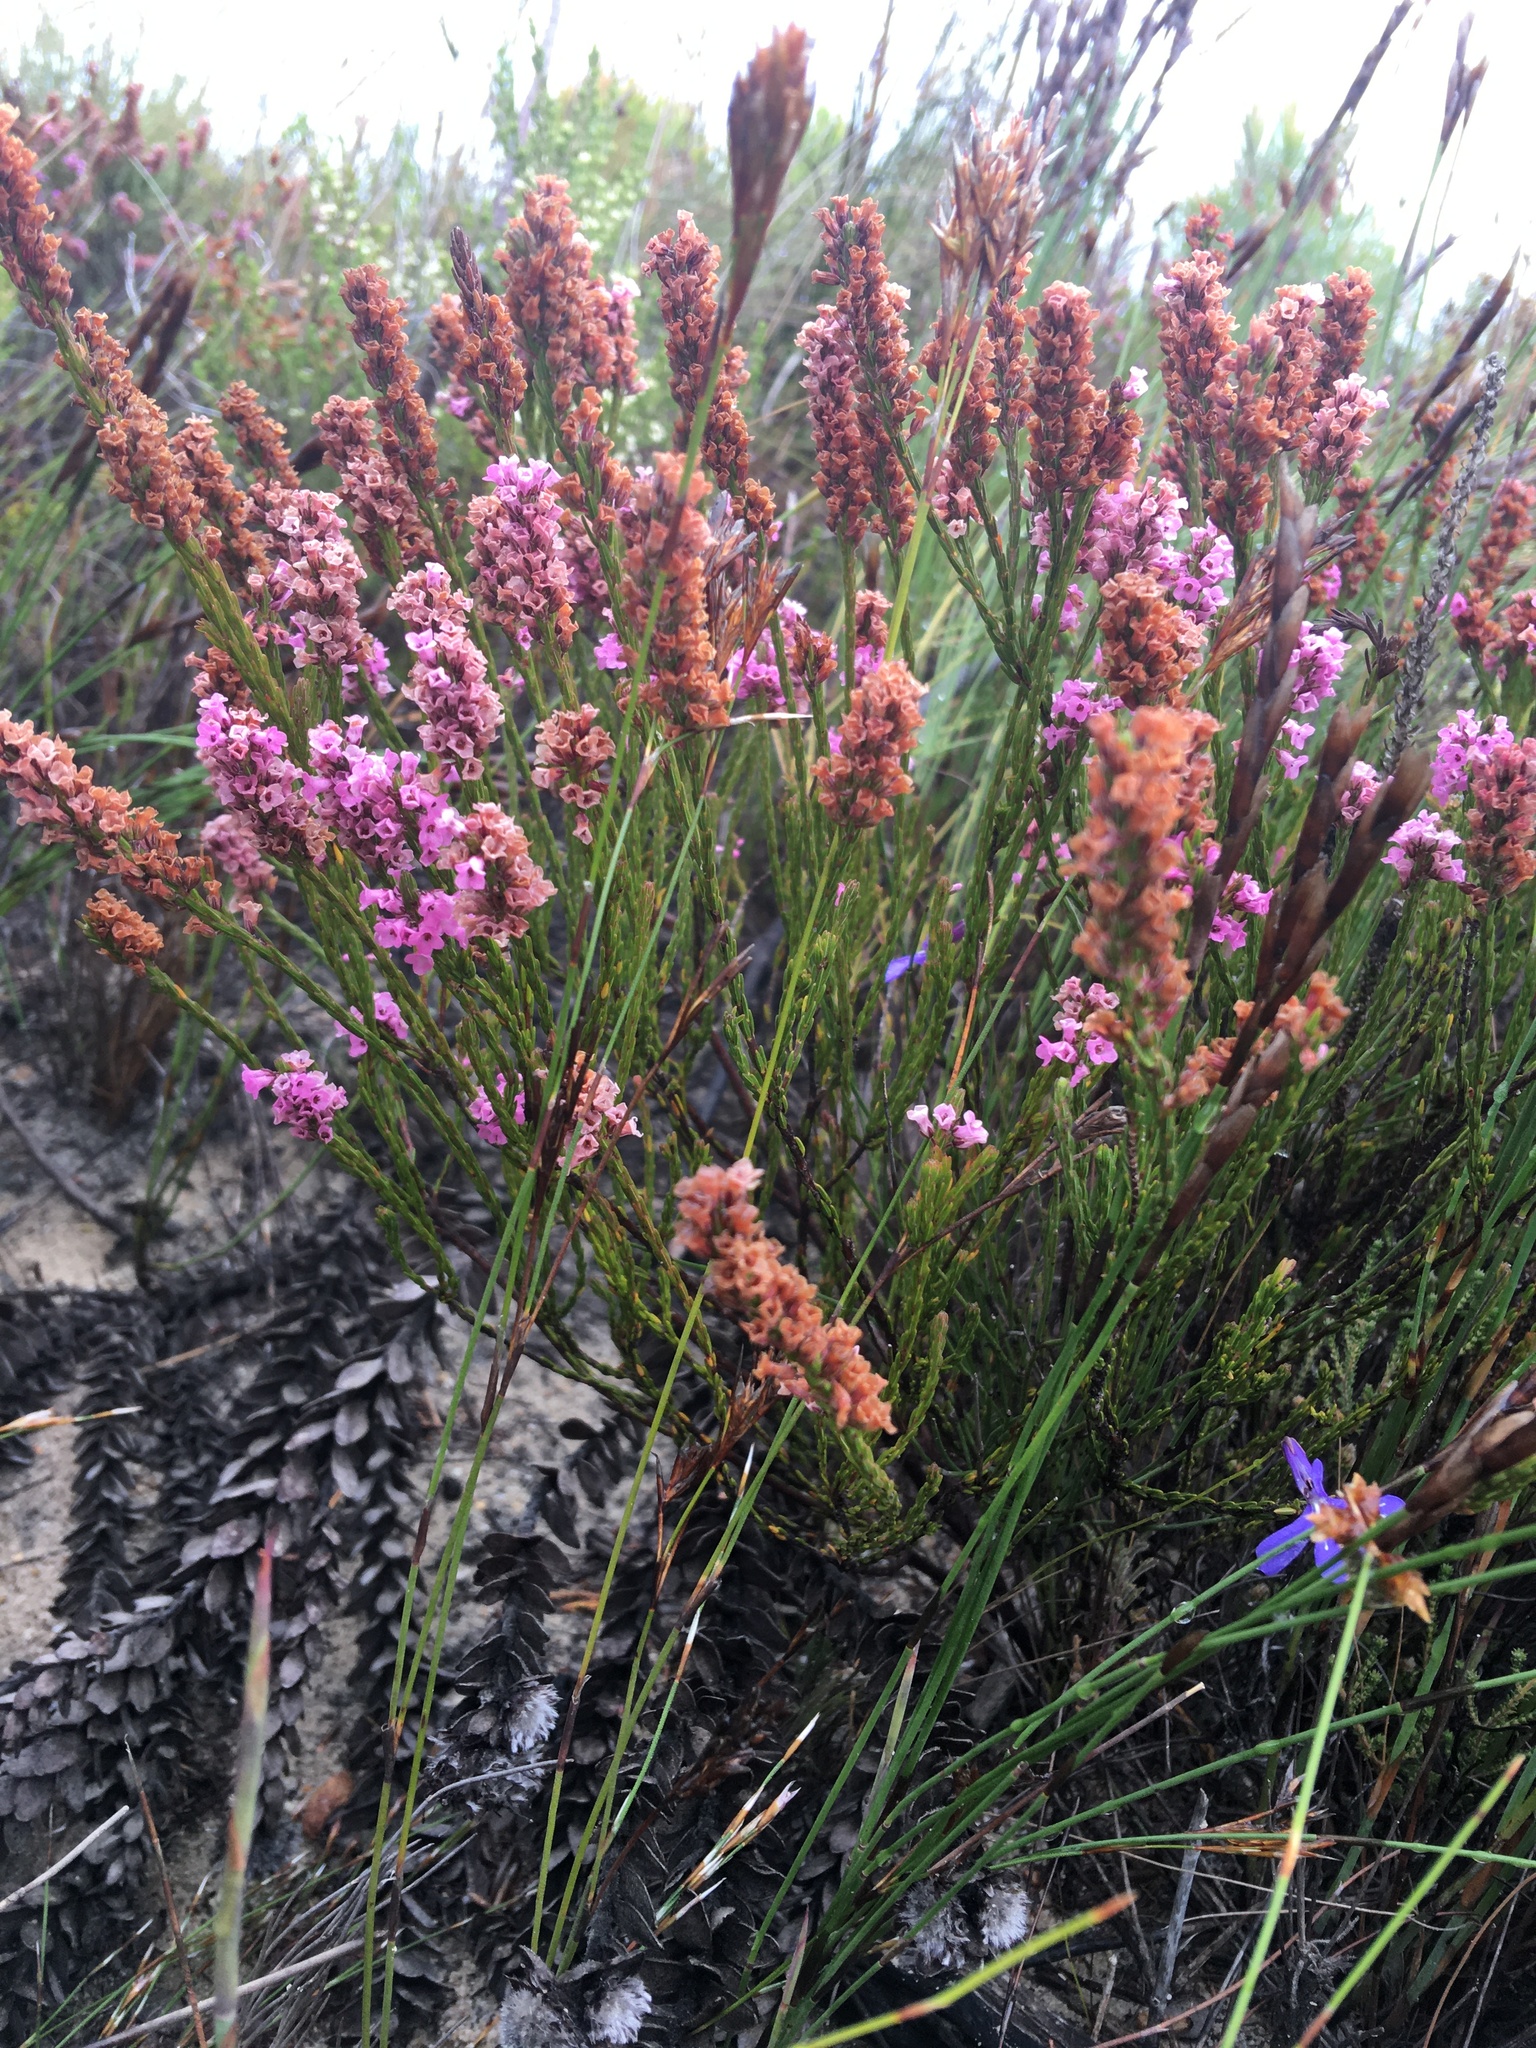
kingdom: Plantae
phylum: Tracheophyta
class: Magnoliopsida
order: Ericales
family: Ericaceae
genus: Erica
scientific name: Erica longiaristata
